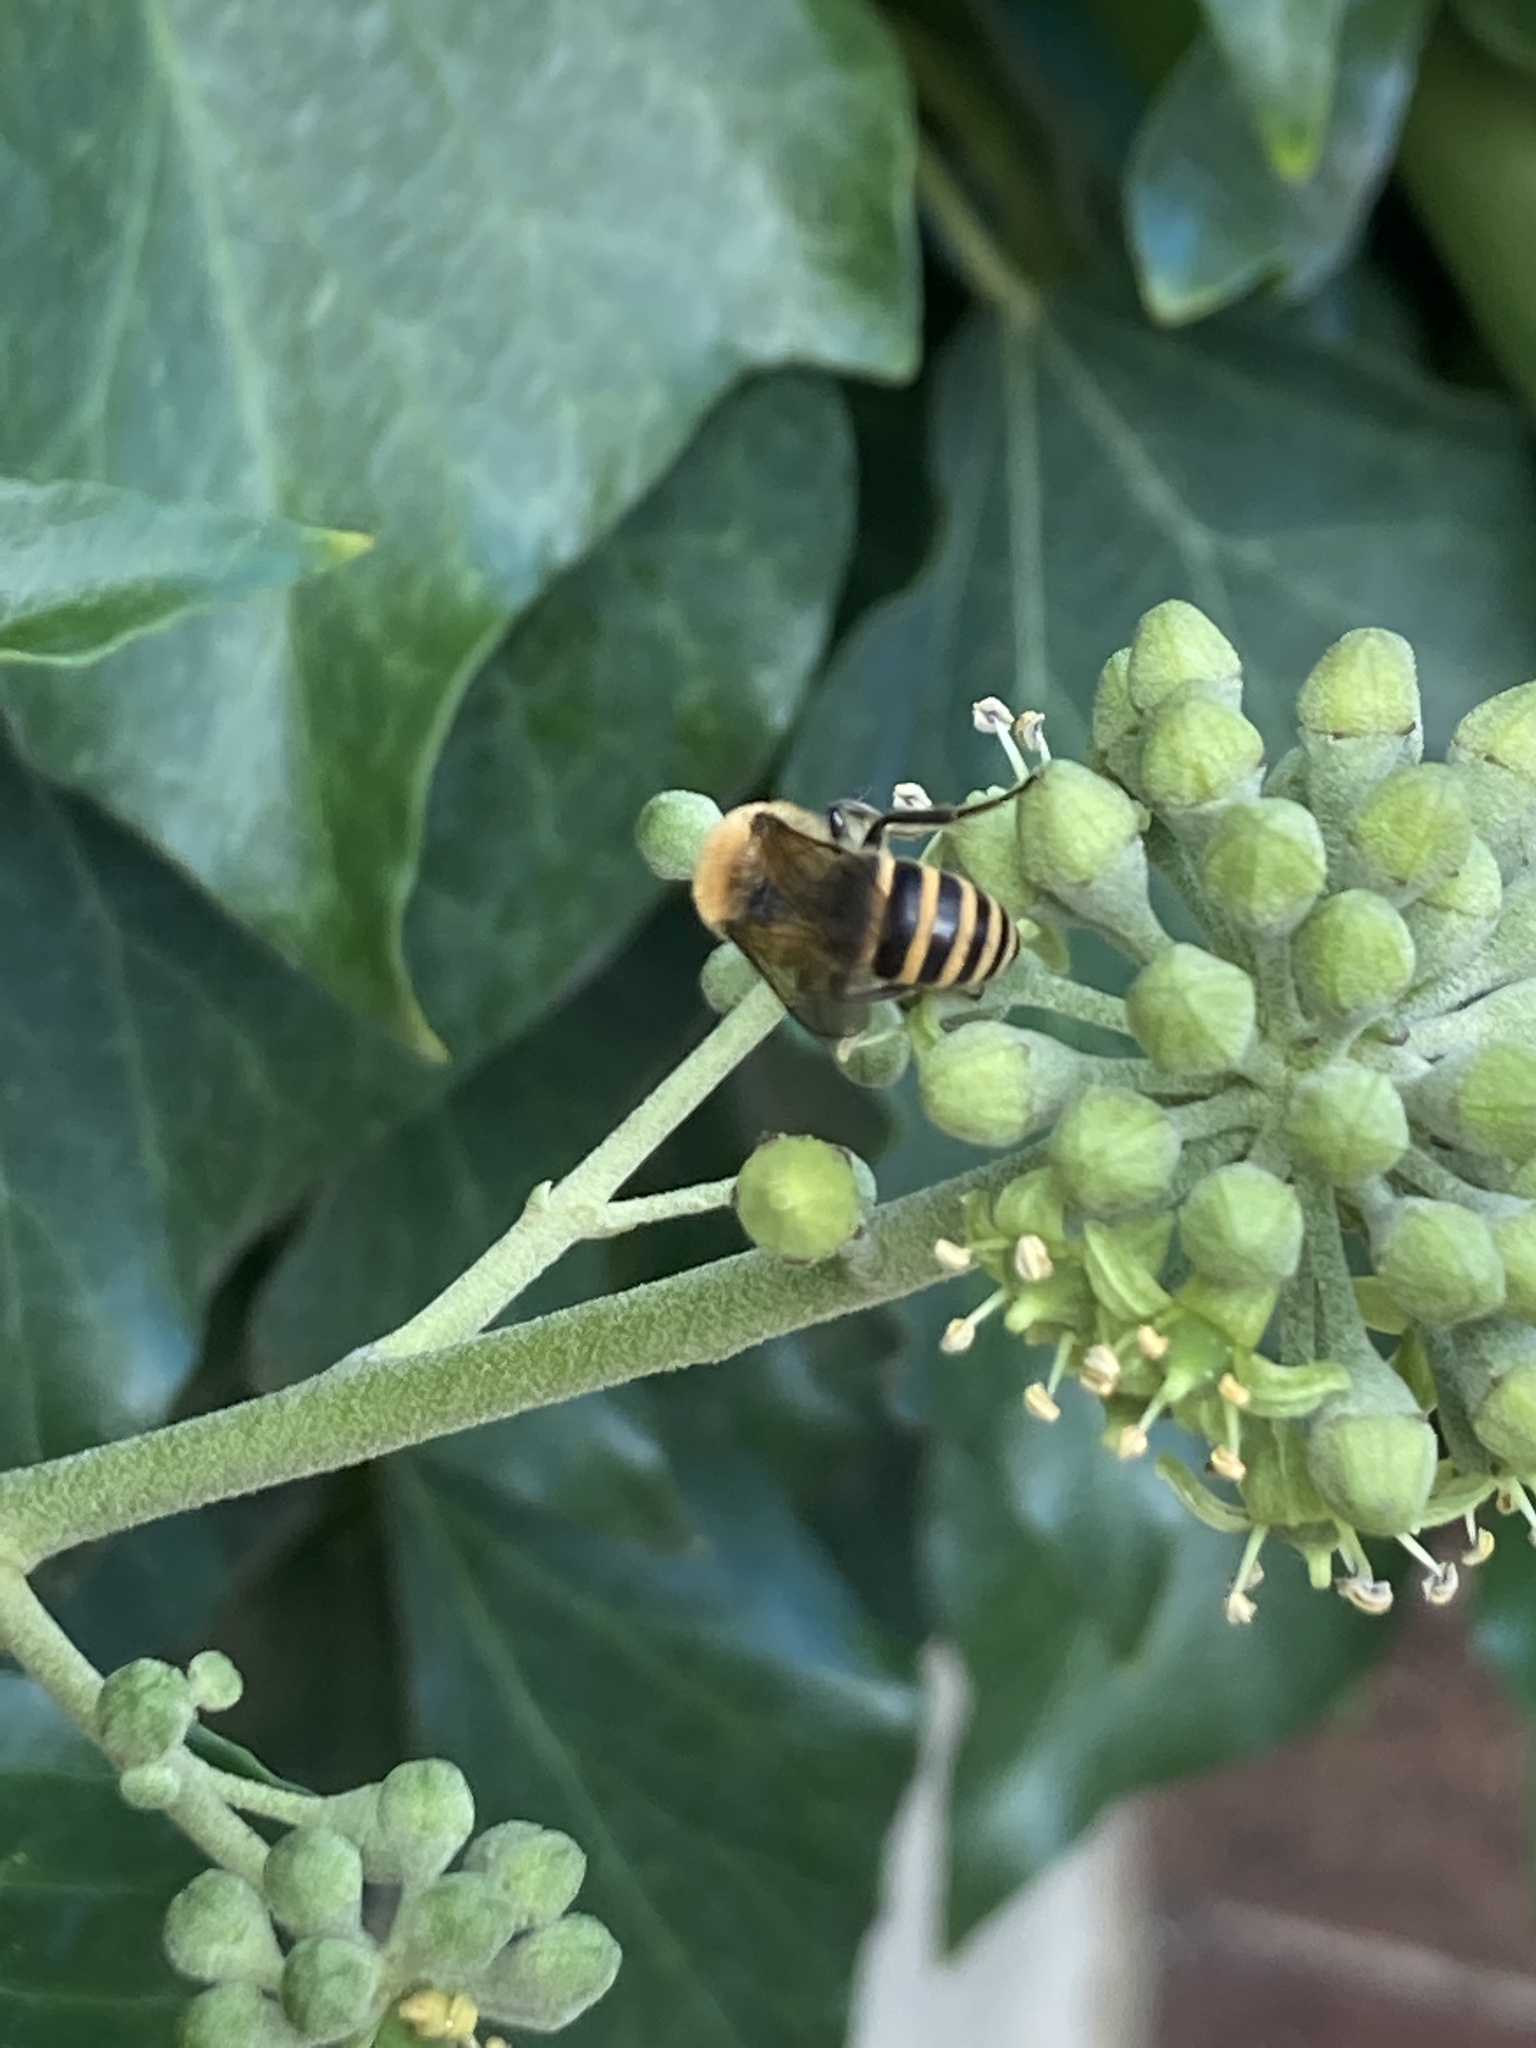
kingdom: Animalia
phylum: Arthropoda
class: Insecta
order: Hymenoptera
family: Colletidae
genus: Colletes
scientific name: Colletes hederae
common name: Ivy bee
